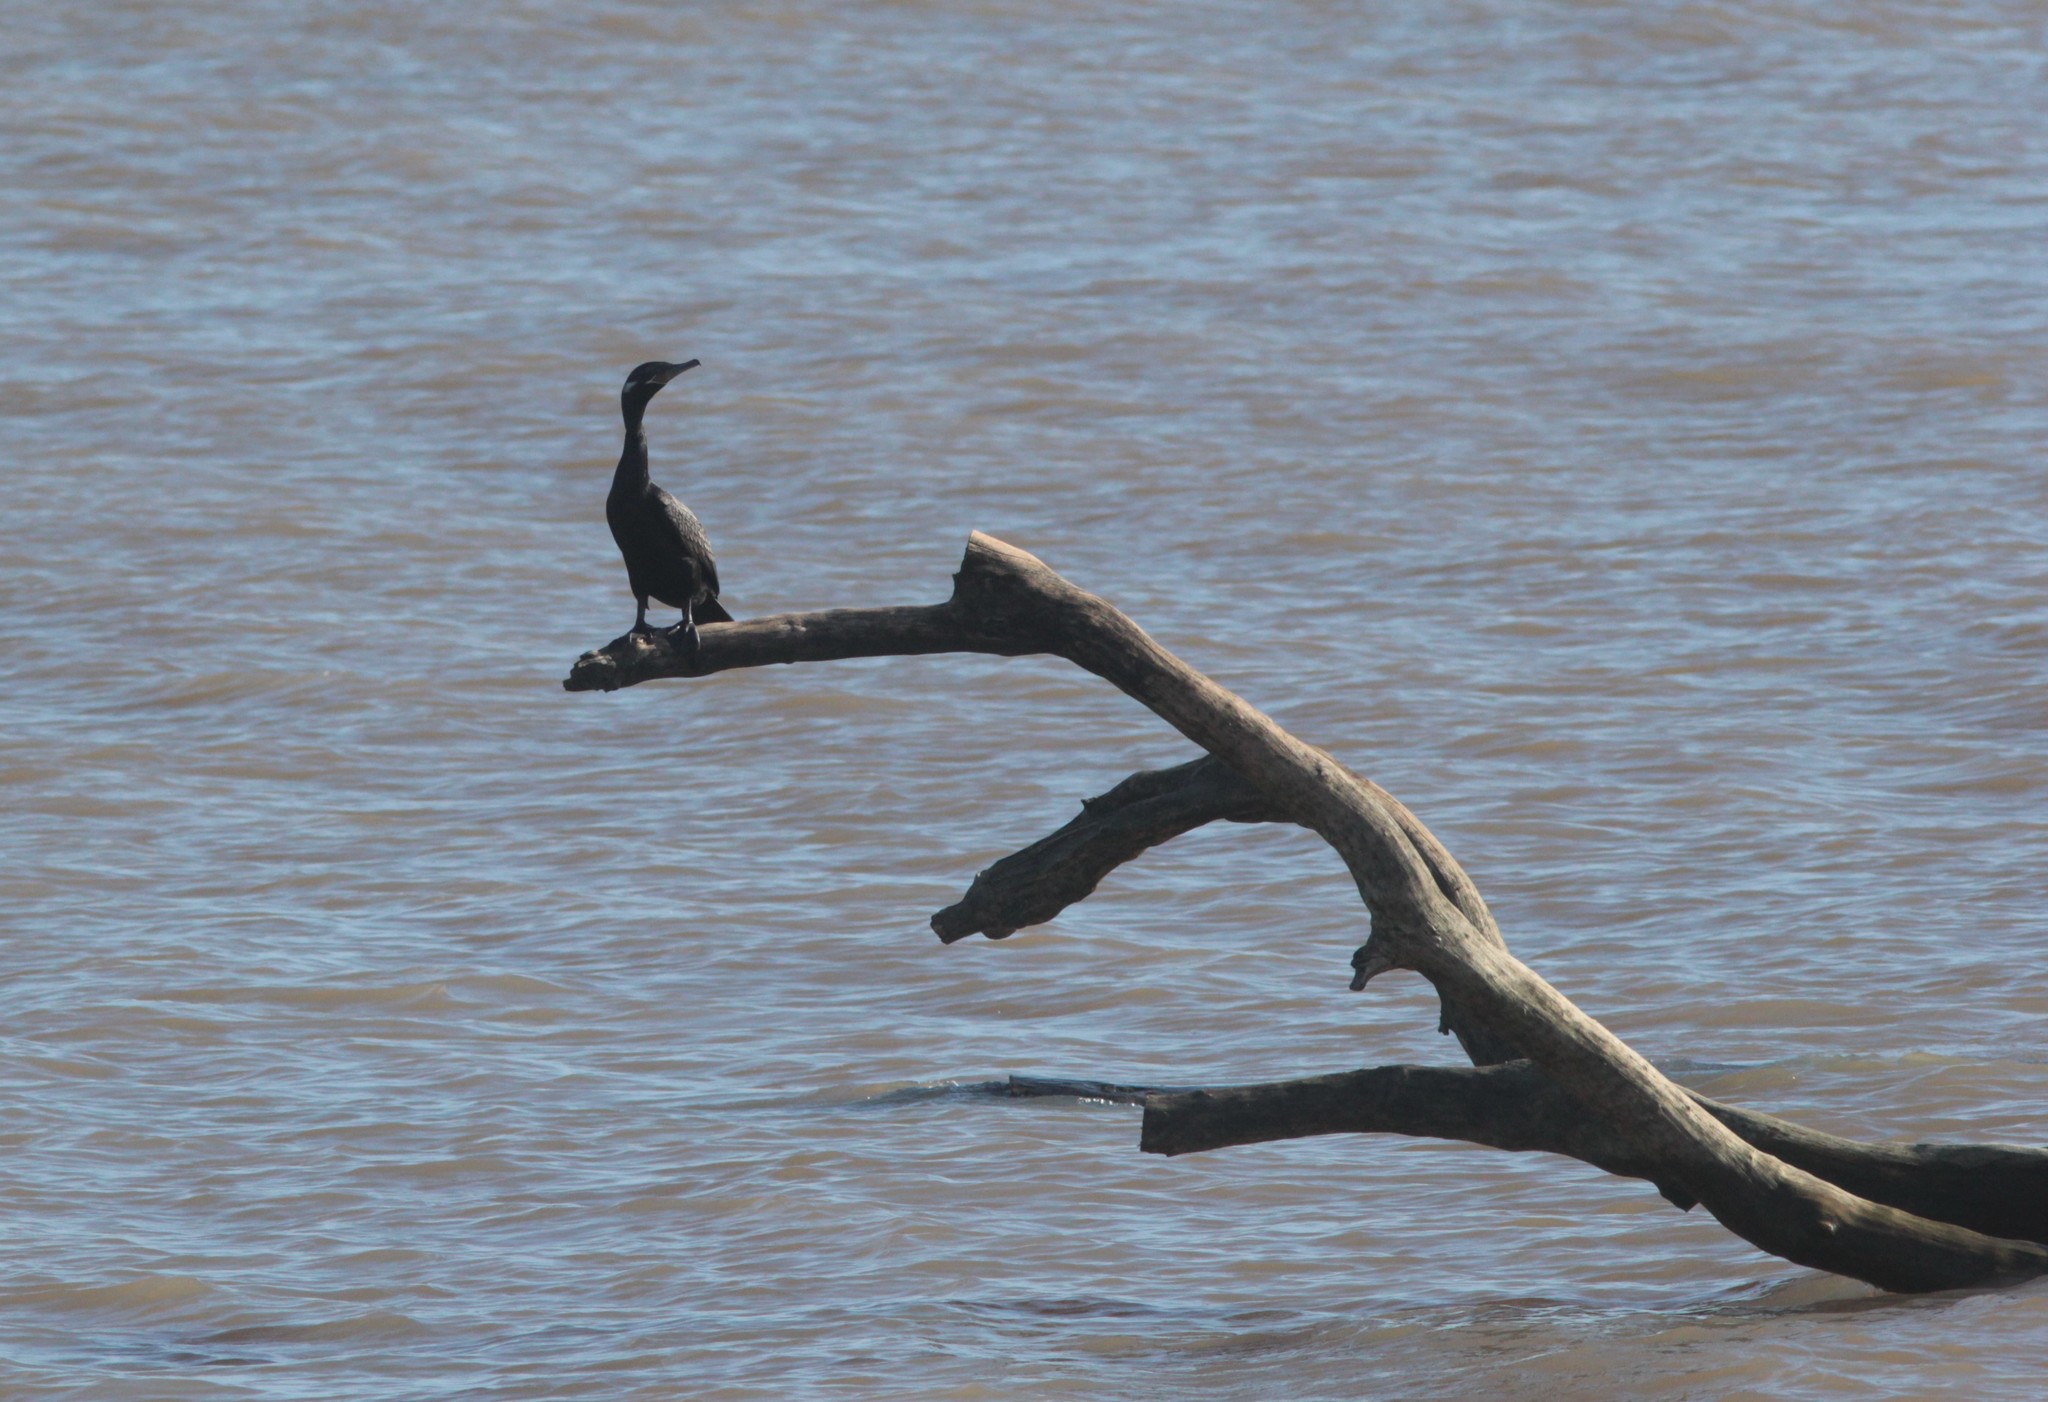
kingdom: Animalia
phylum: Chordata
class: Aves
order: Suliformes
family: Phalacrocoracidae
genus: Phalacrocorax
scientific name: Phalacrocorax brasilianus
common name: Neotropic cormorant
